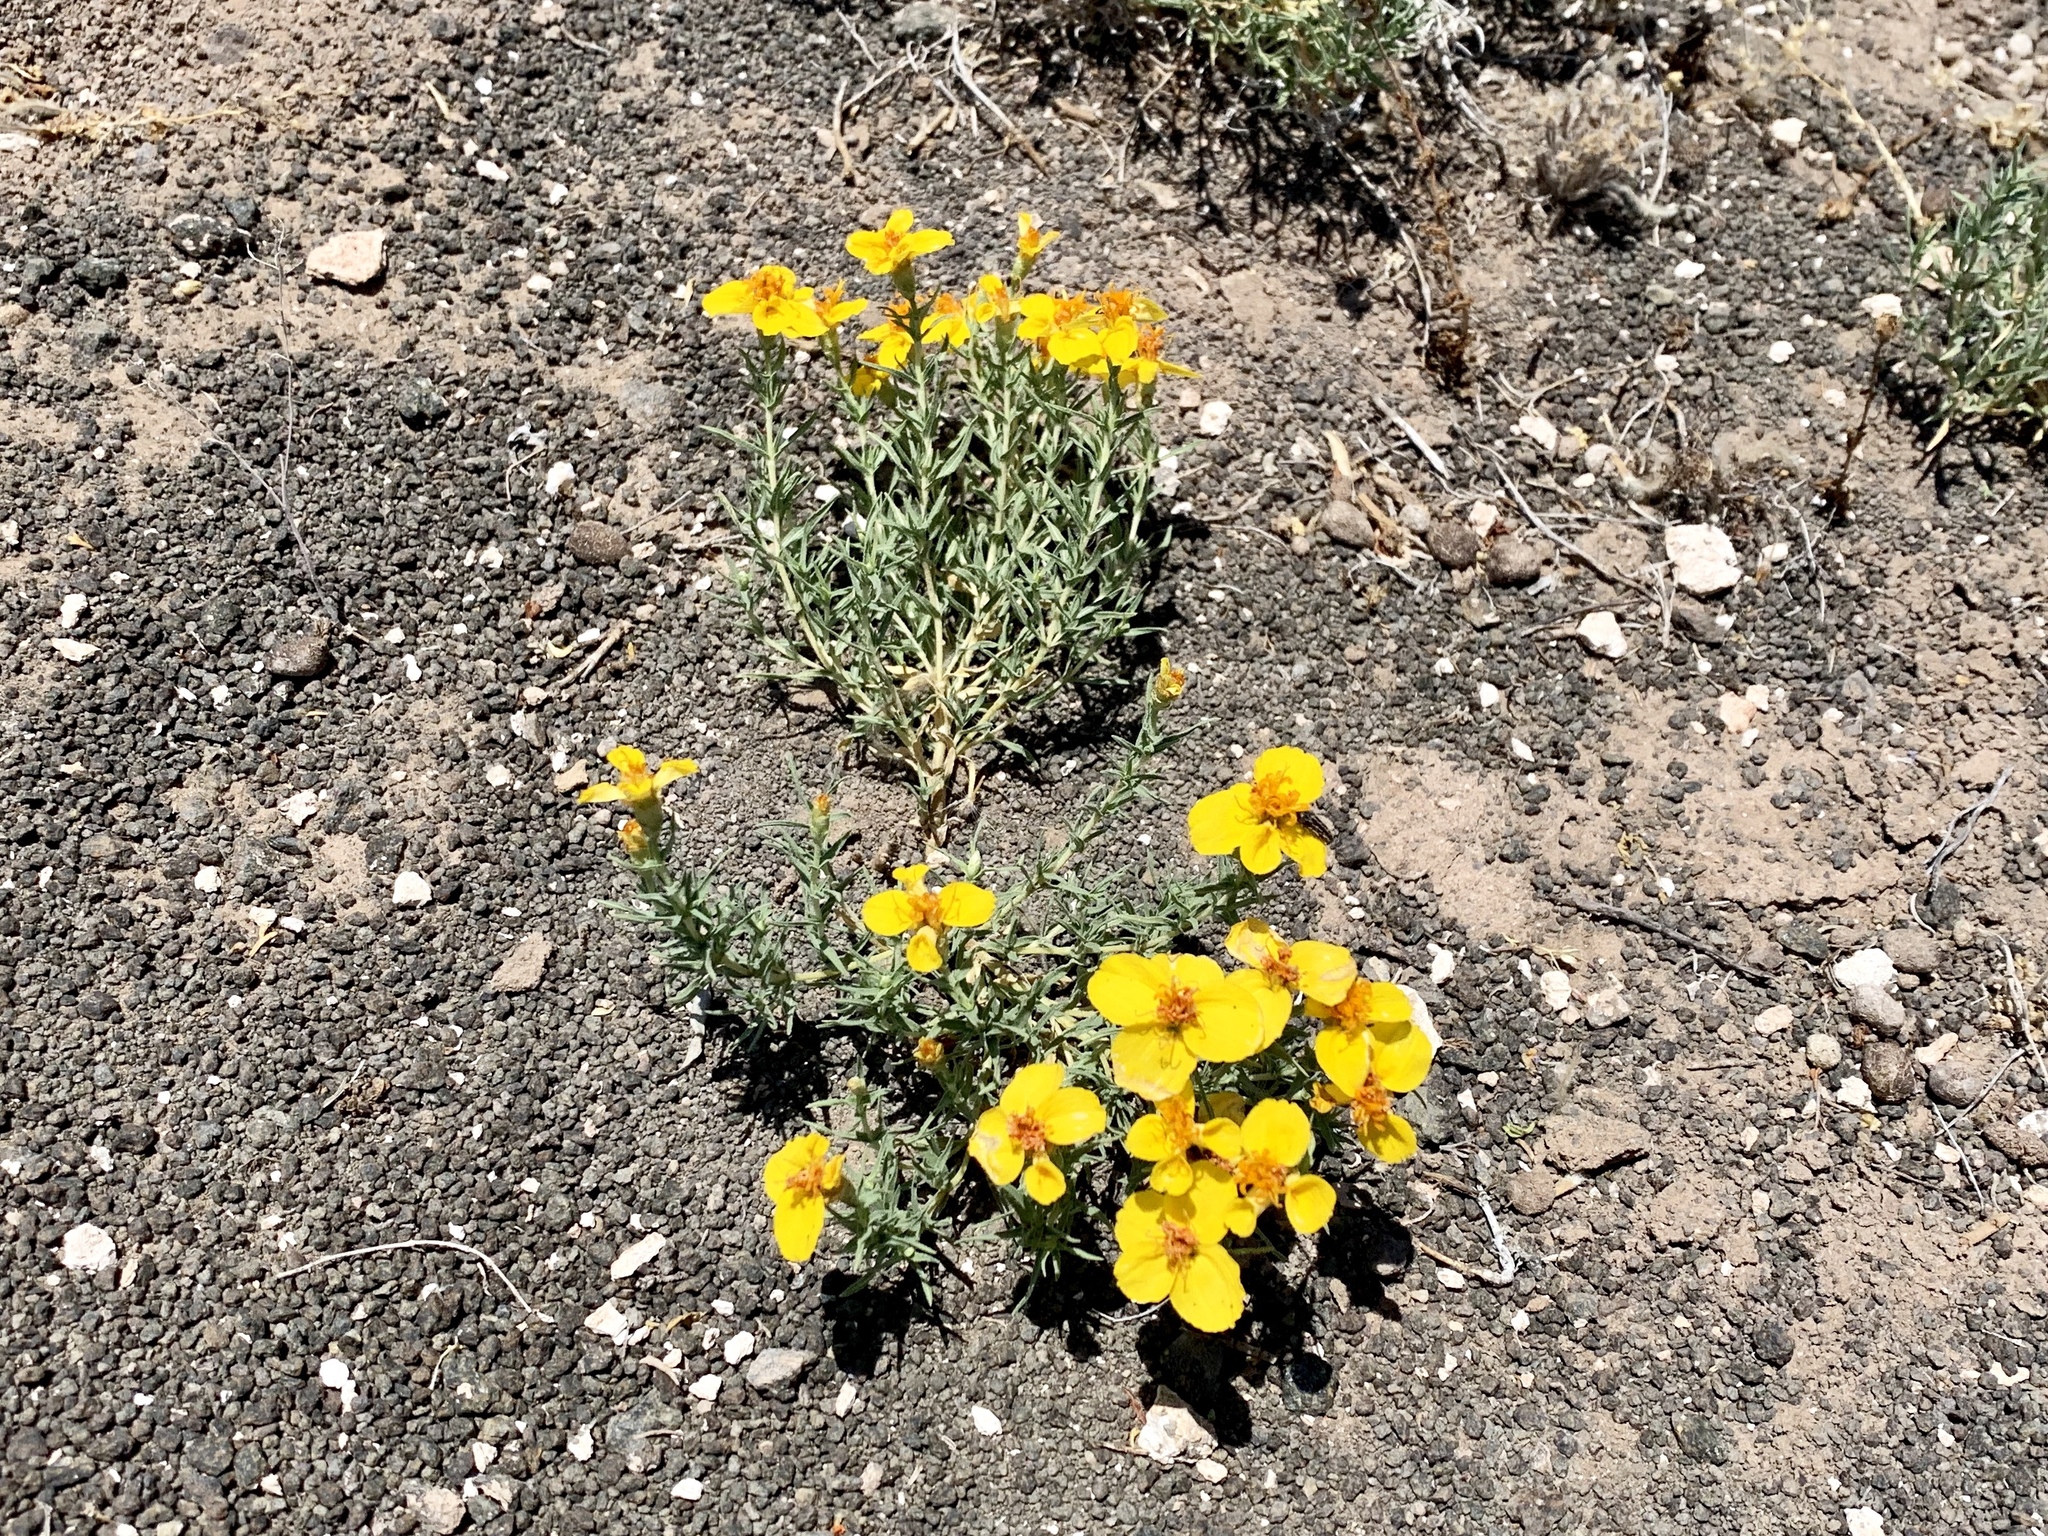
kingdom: Plantae
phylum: Tracheophyta
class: Magnoliopsida
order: Asterales
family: Asteraceae
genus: Zinnia
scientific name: Zinnia grandiflora
